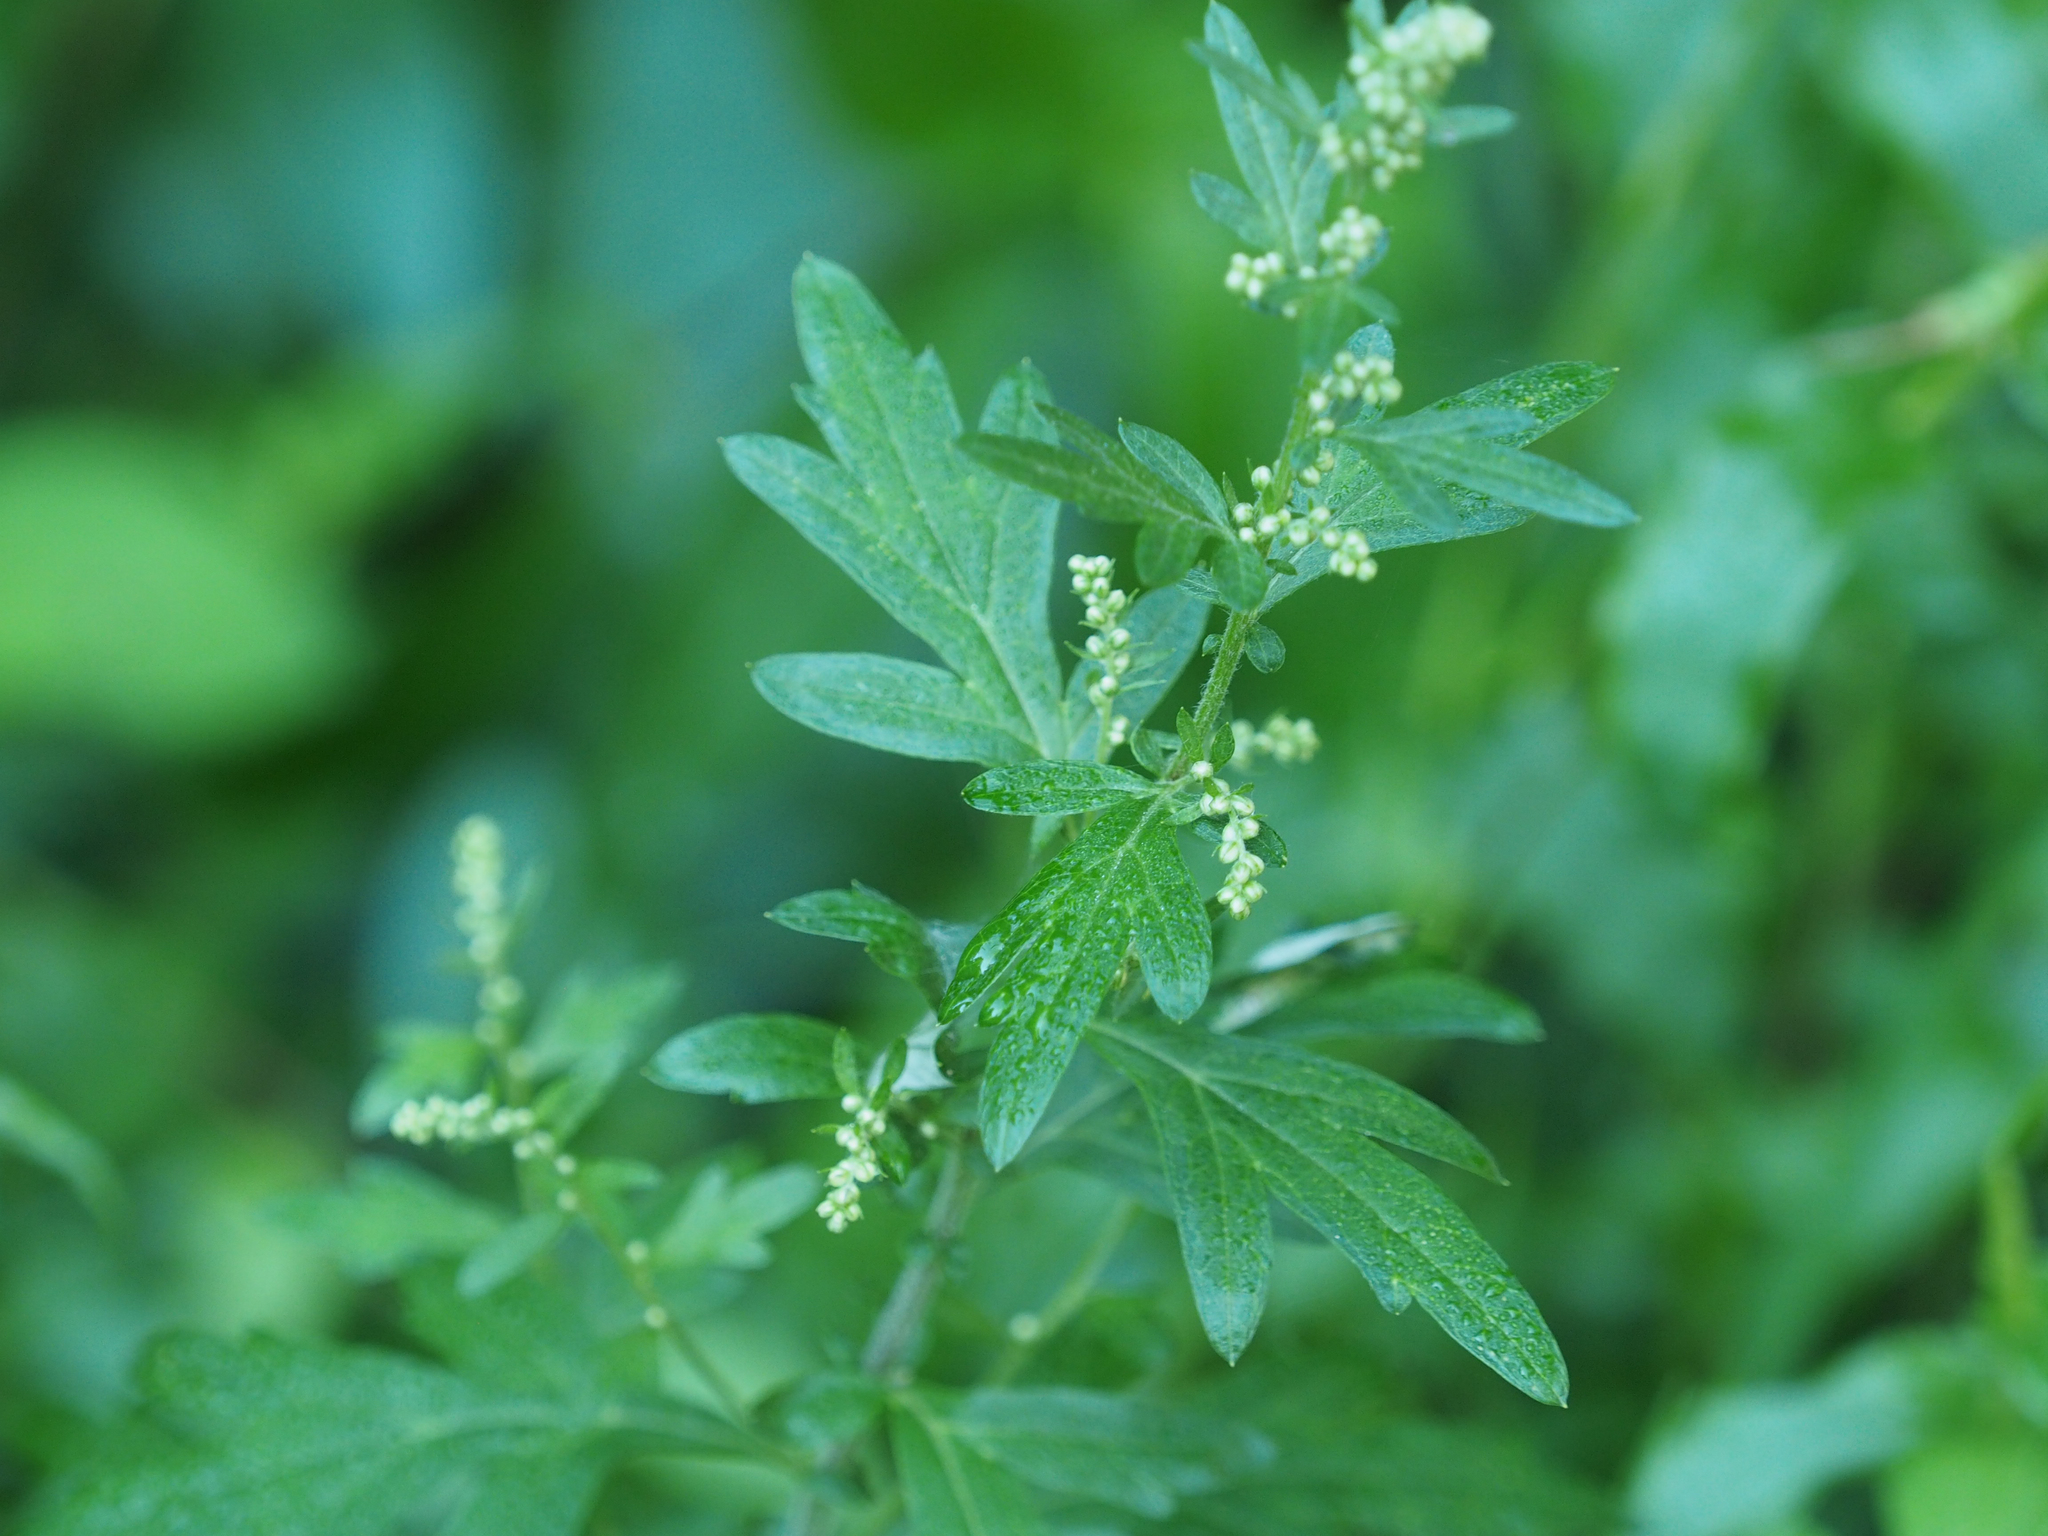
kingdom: Plantae
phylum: Tracheophyta
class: Magnoliopsida
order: Asterales
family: Asteraceae
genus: Artemisia
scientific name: Artemisia vulgaris
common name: Mugwort
